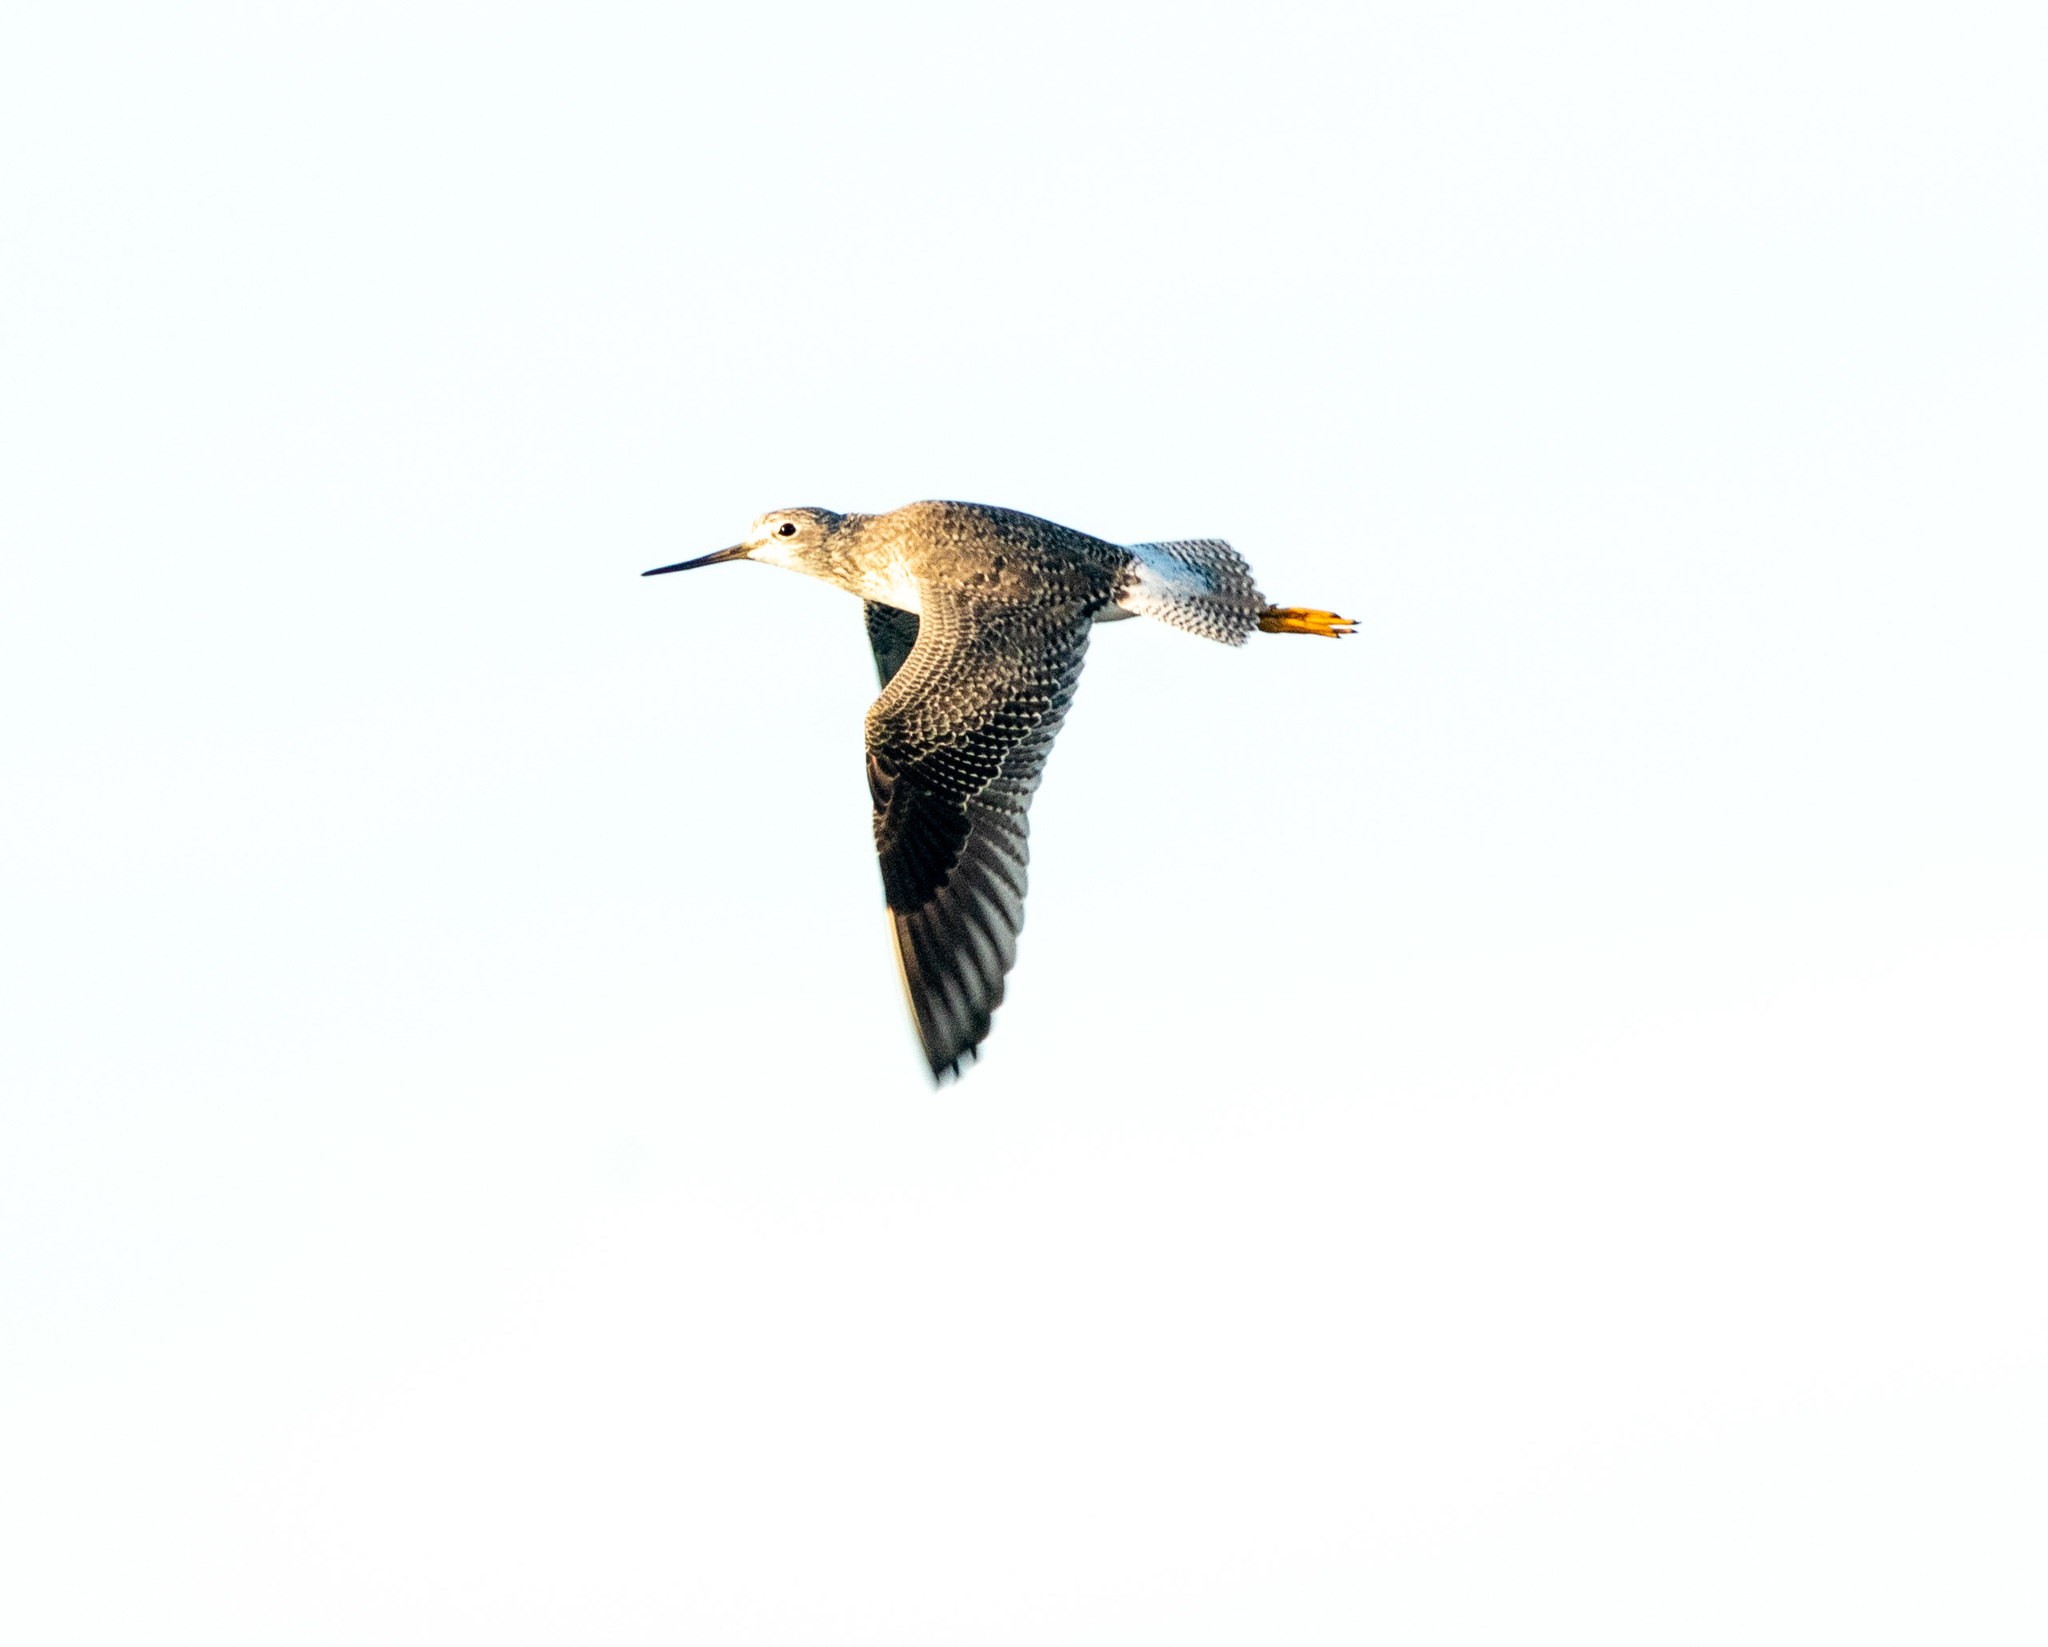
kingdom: Animalia
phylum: Chordata
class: Aves
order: Charadriiformes
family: Scolopacidae
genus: Tringa
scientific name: Tringa melanoleuca
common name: Greater yellowlegs
